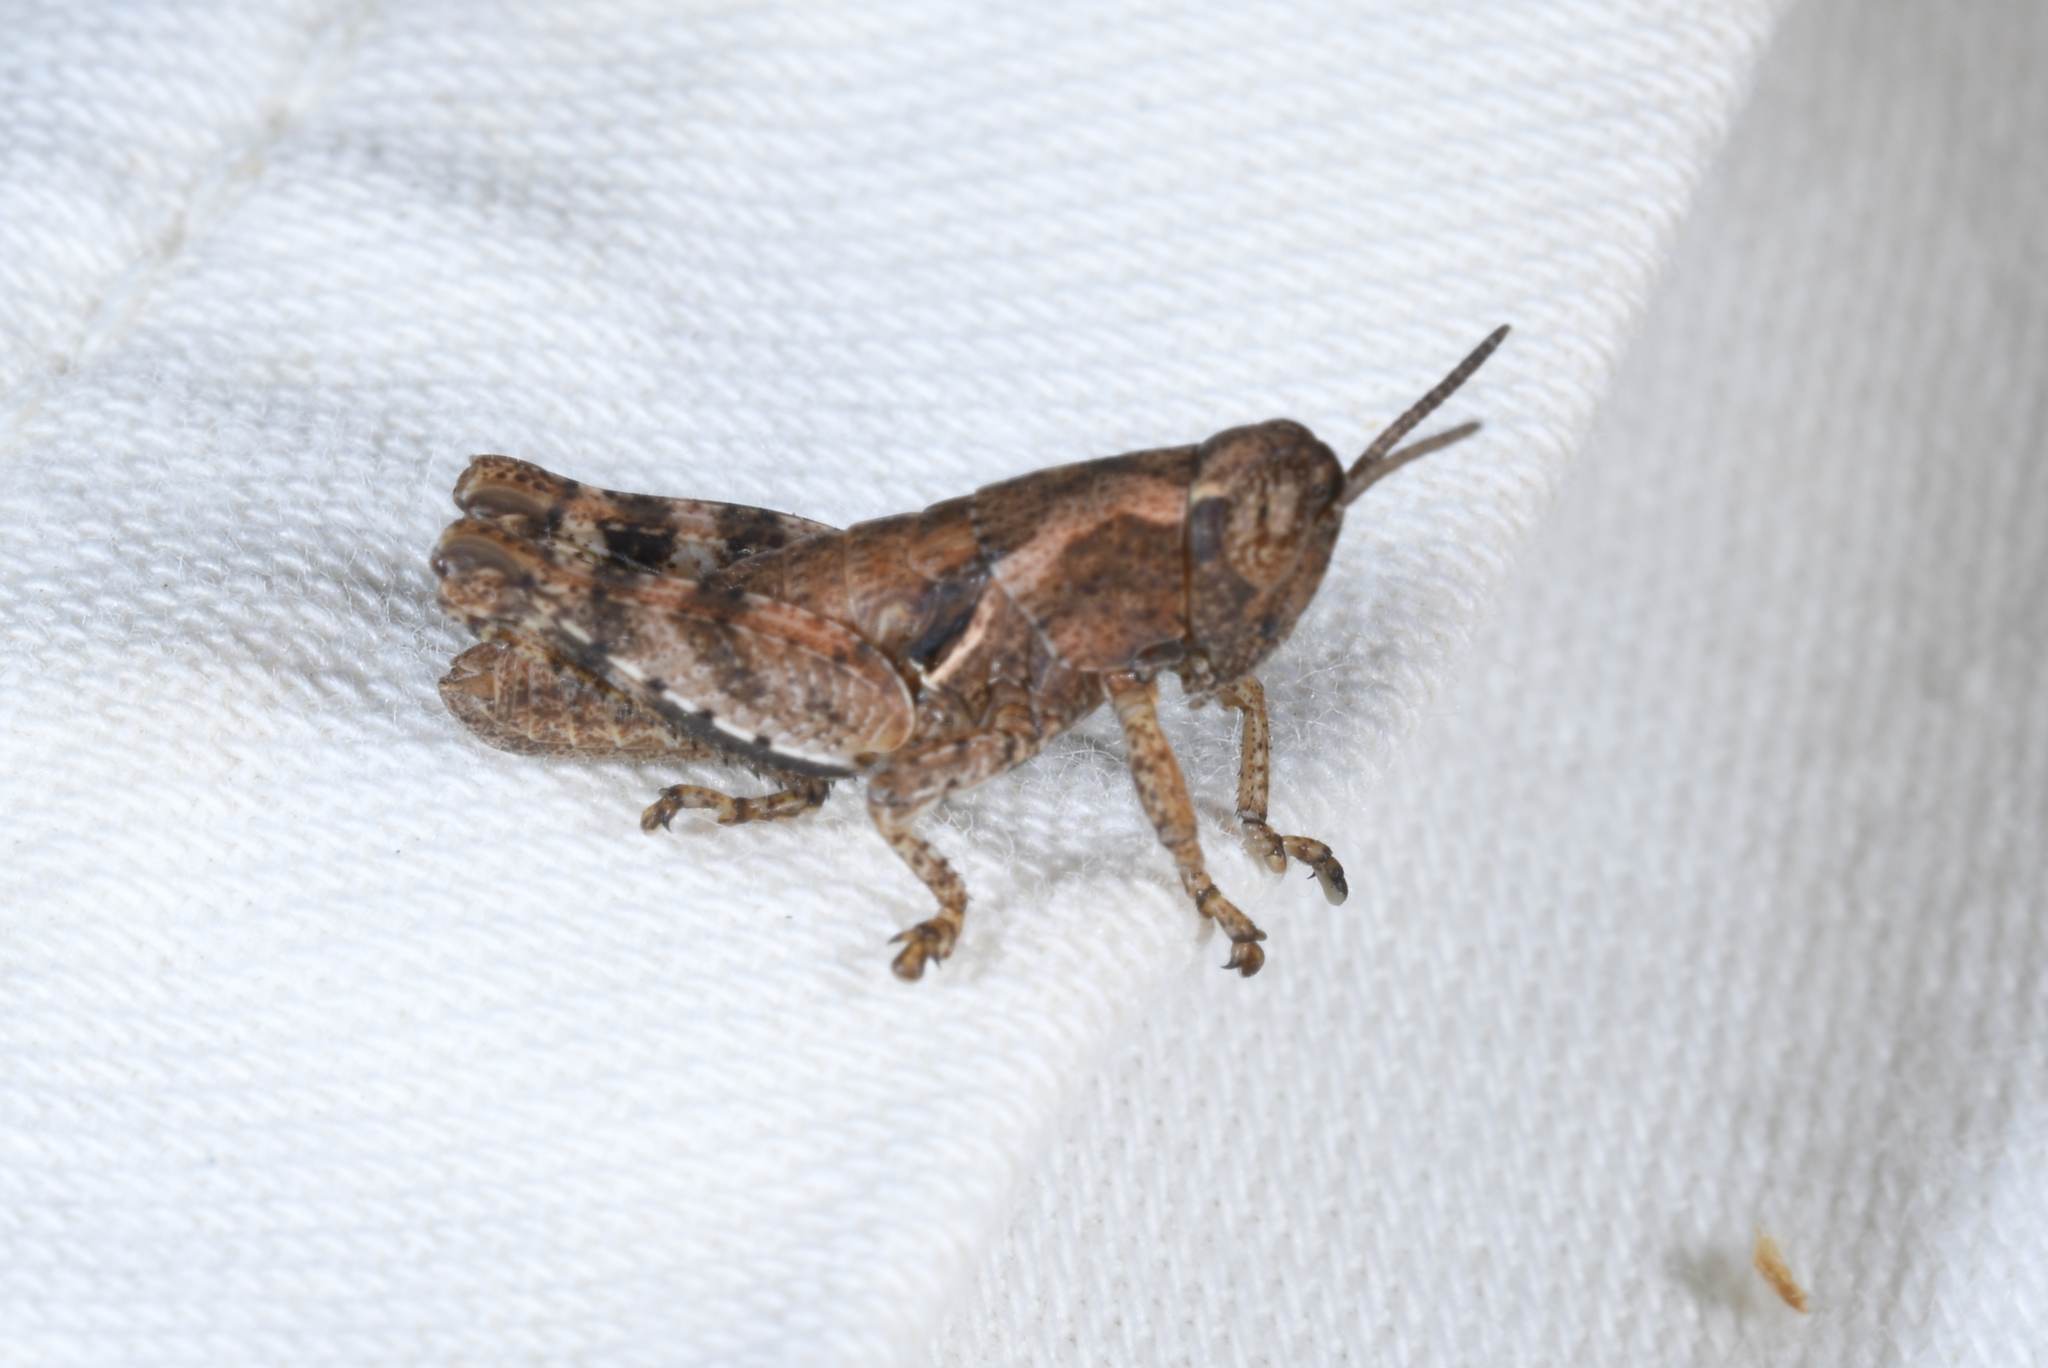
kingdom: Animalia
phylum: Arthropoda
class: Insecta
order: Orthoptera
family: Acrididae
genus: Pezotettix
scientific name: Pezotettix giornae
